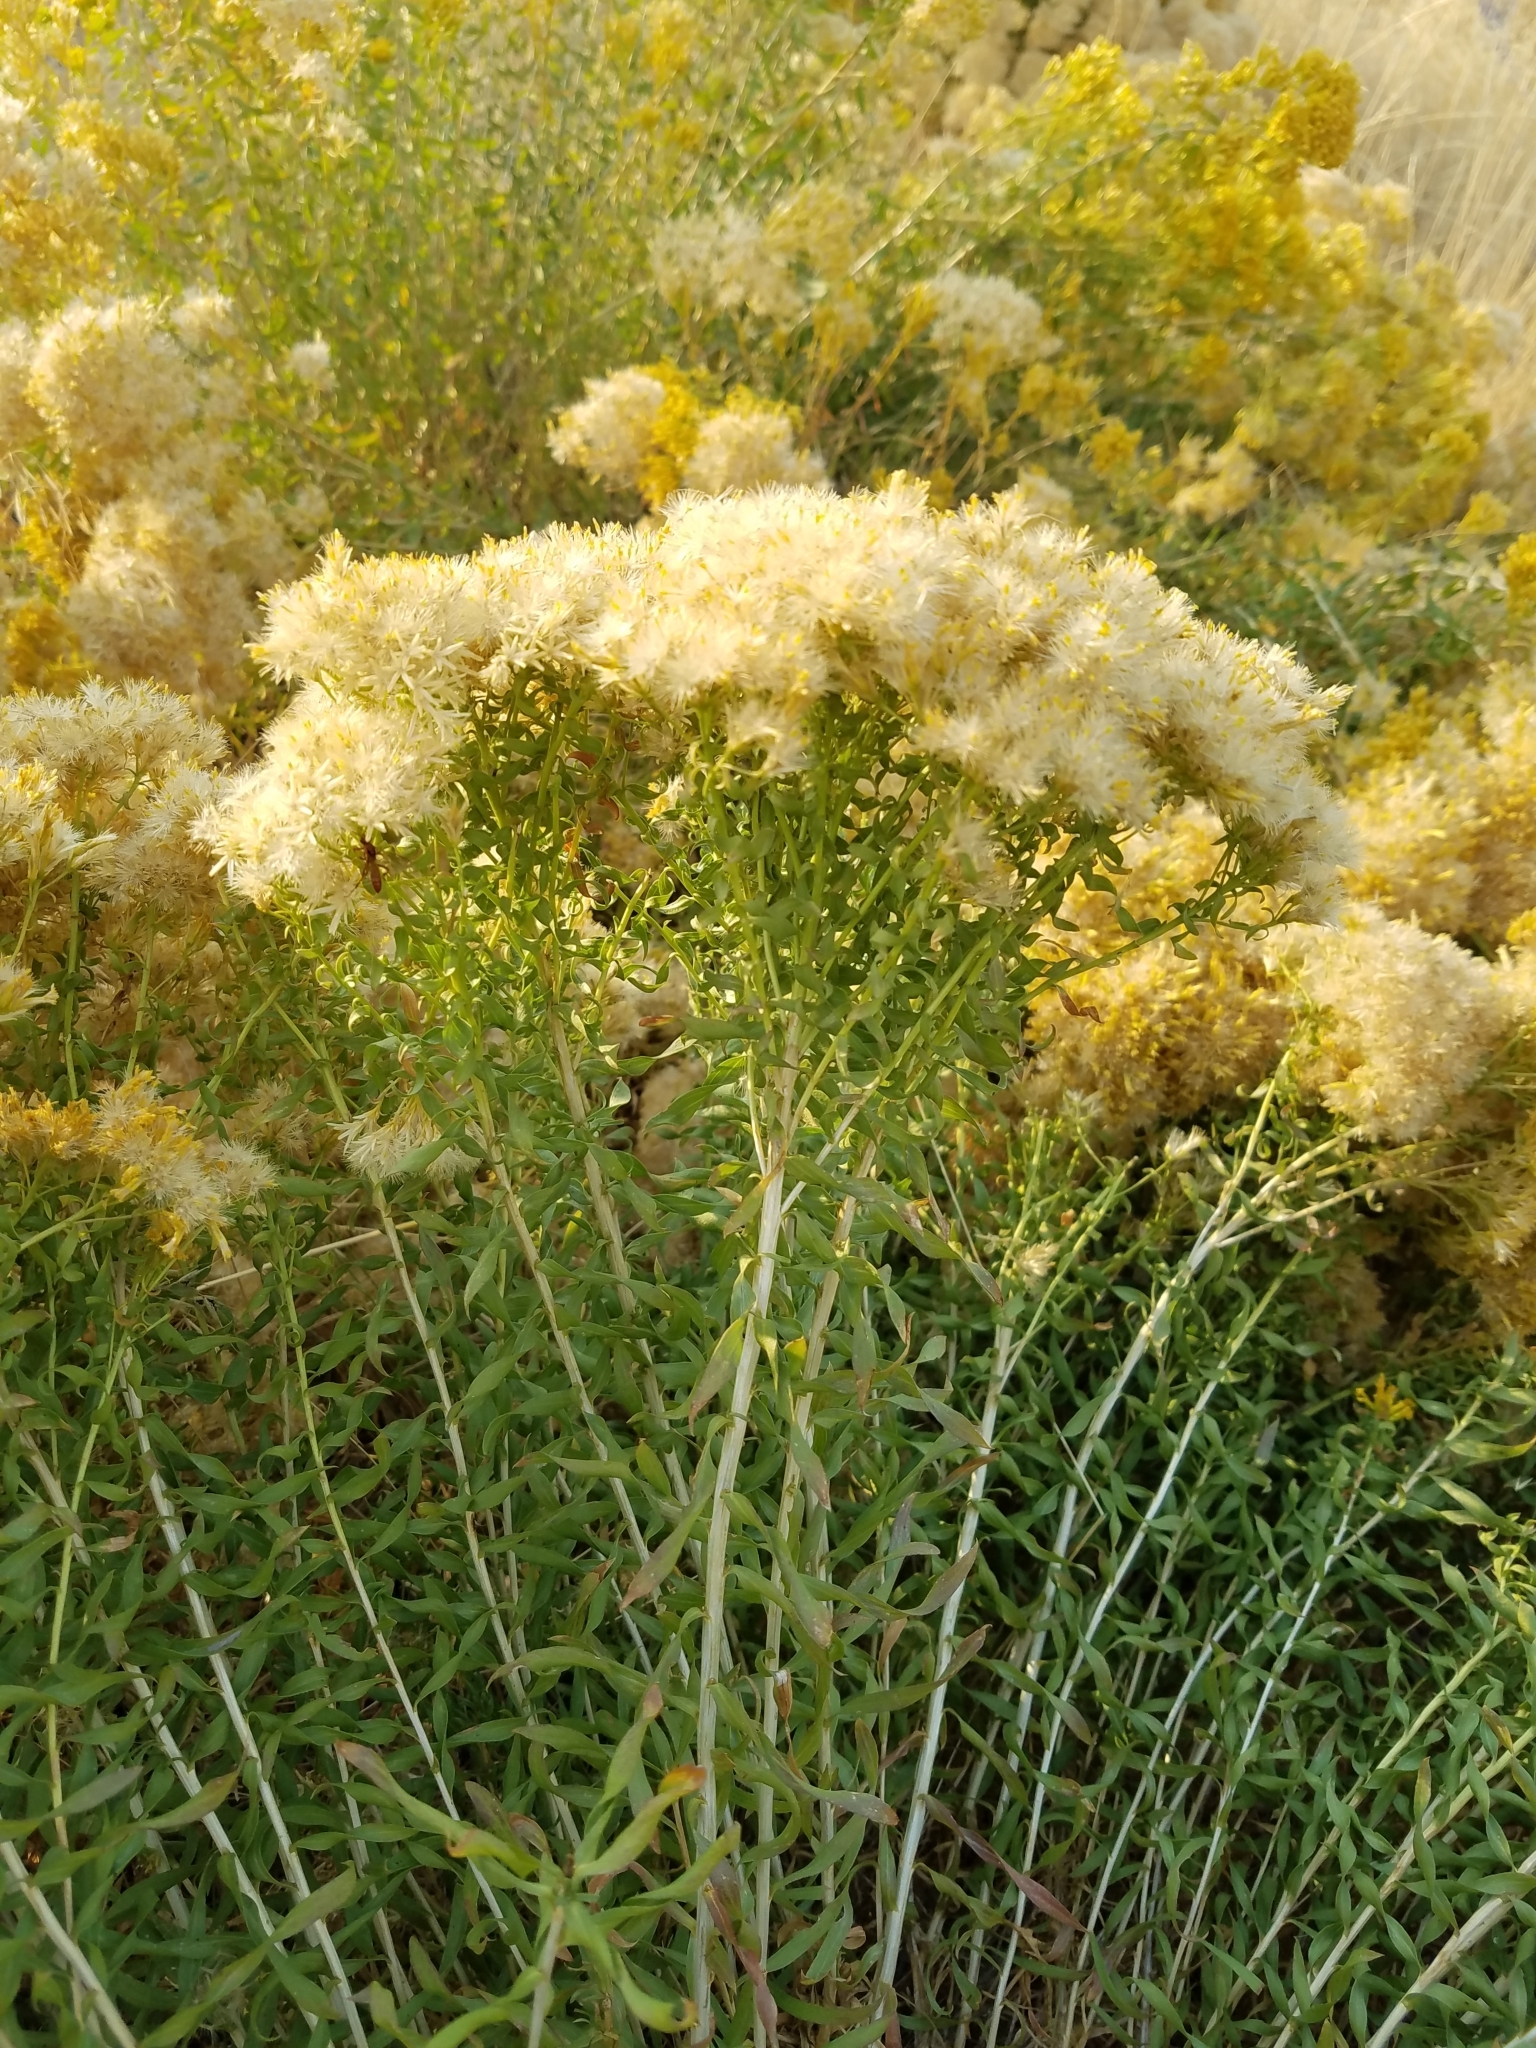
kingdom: Plantae
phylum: Tracheophyta
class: Magnoliopsida
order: Asterales
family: Asteraceae
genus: Chrysothamnus
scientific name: Chrysothamnus viscidiflorus
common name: Yellow rabbitbrush
